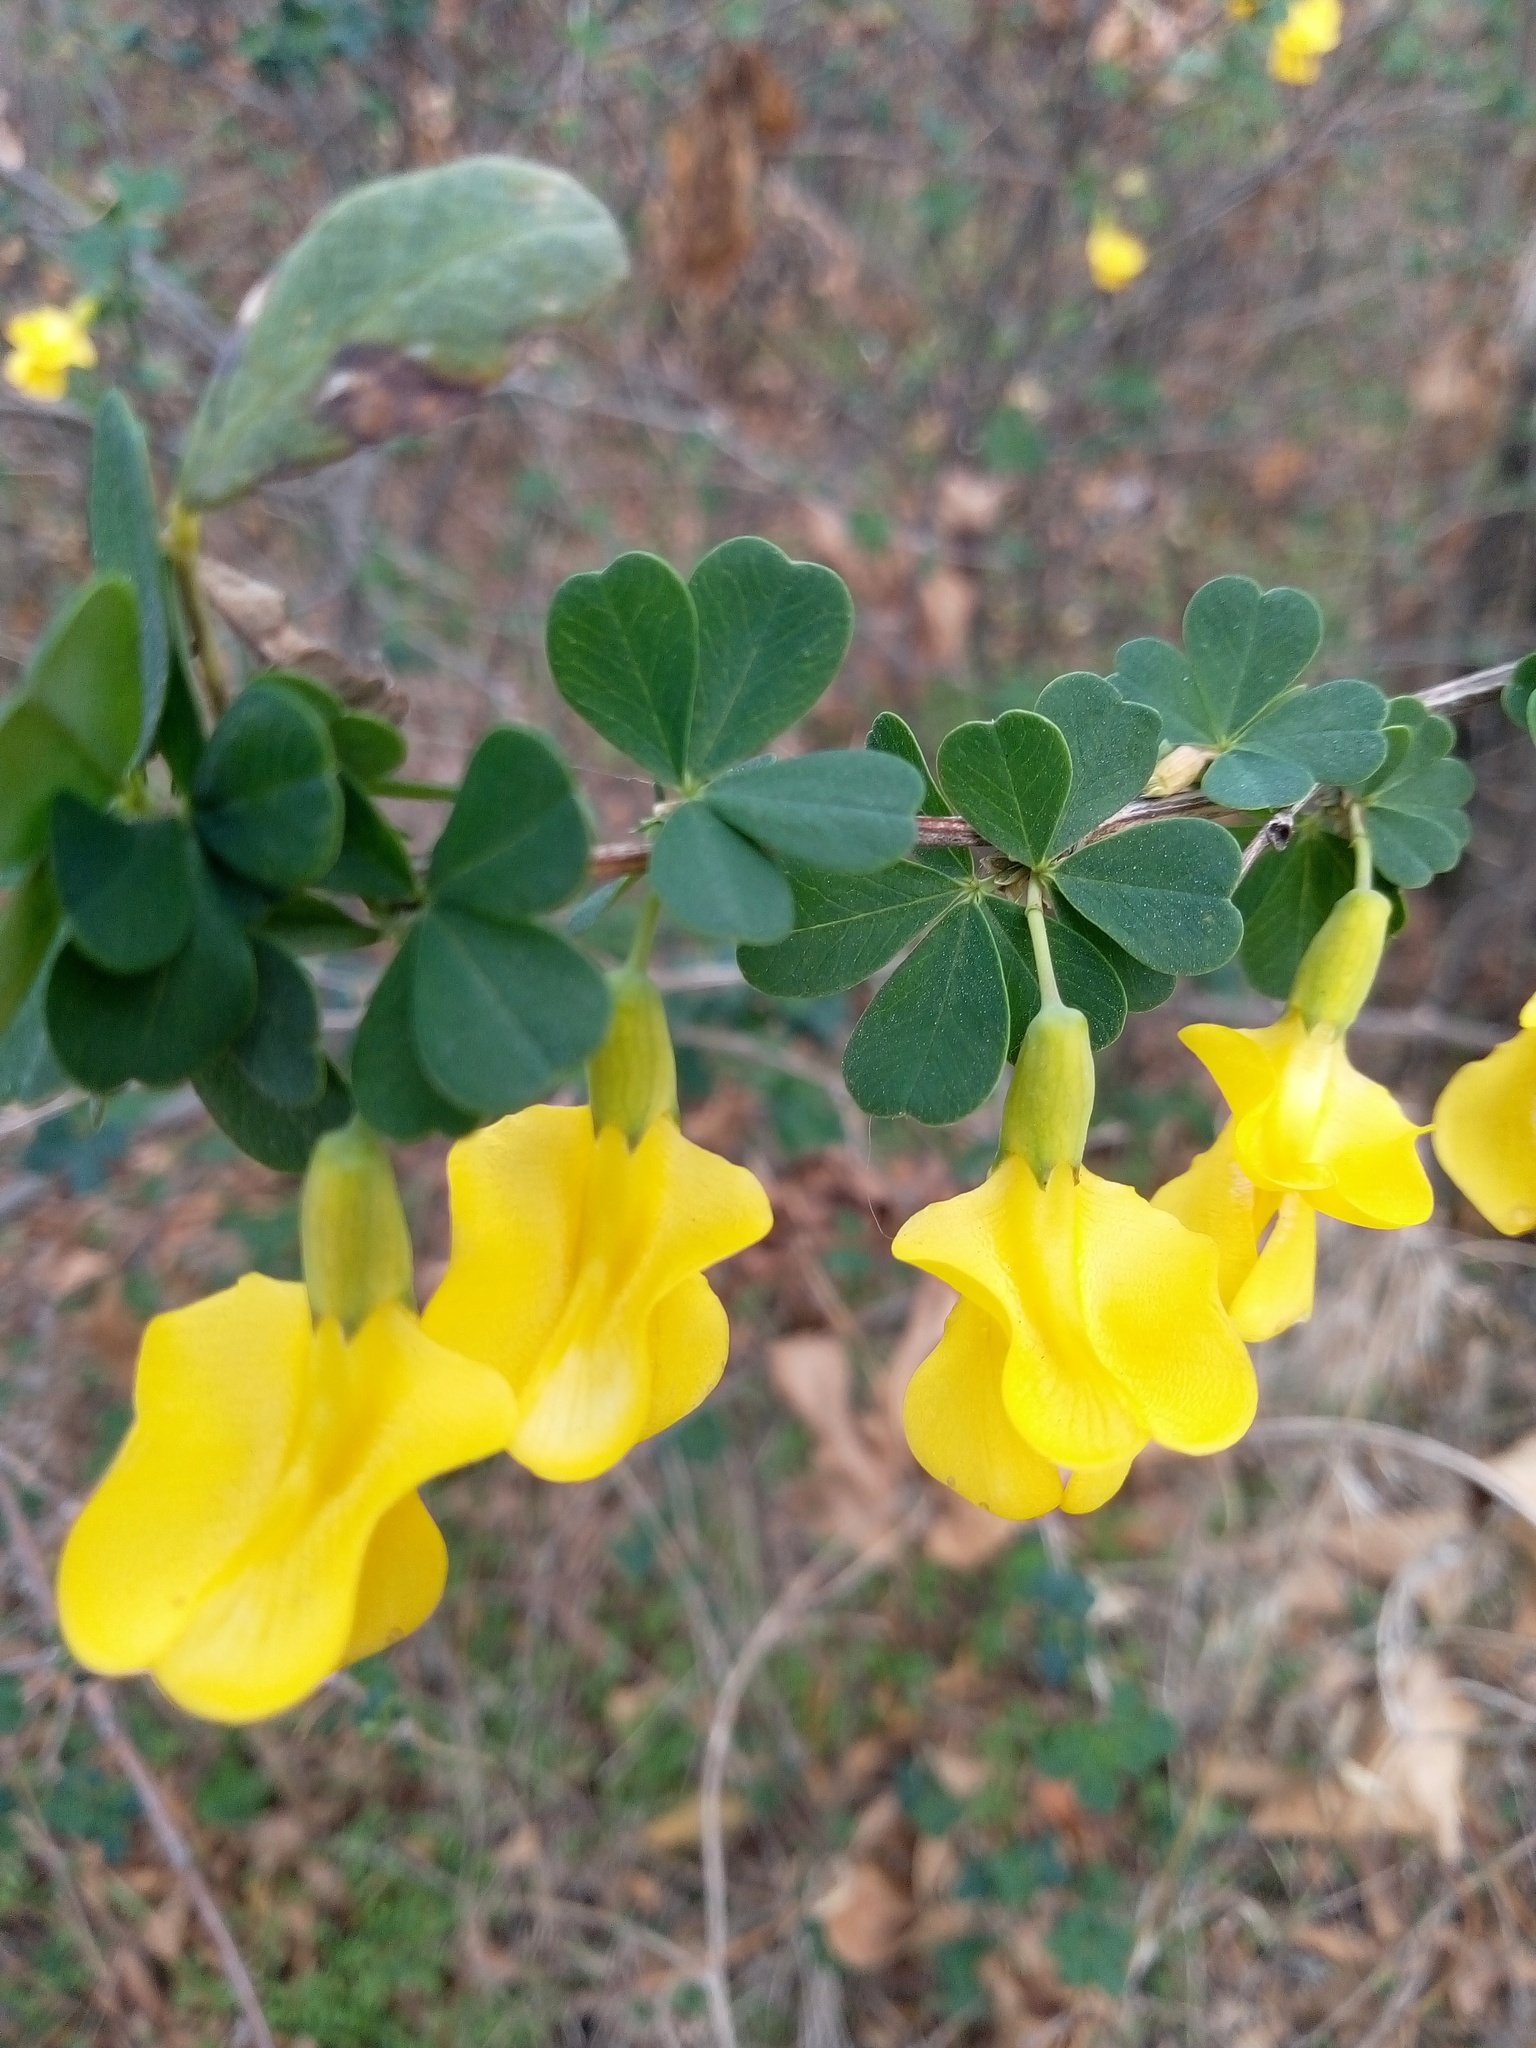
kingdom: Plantae
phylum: Tracheophyta
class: Magnoliopsida
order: Fabales
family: Fabaceae
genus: Caragana
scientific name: Caragana frutex
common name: Russian peashrub
